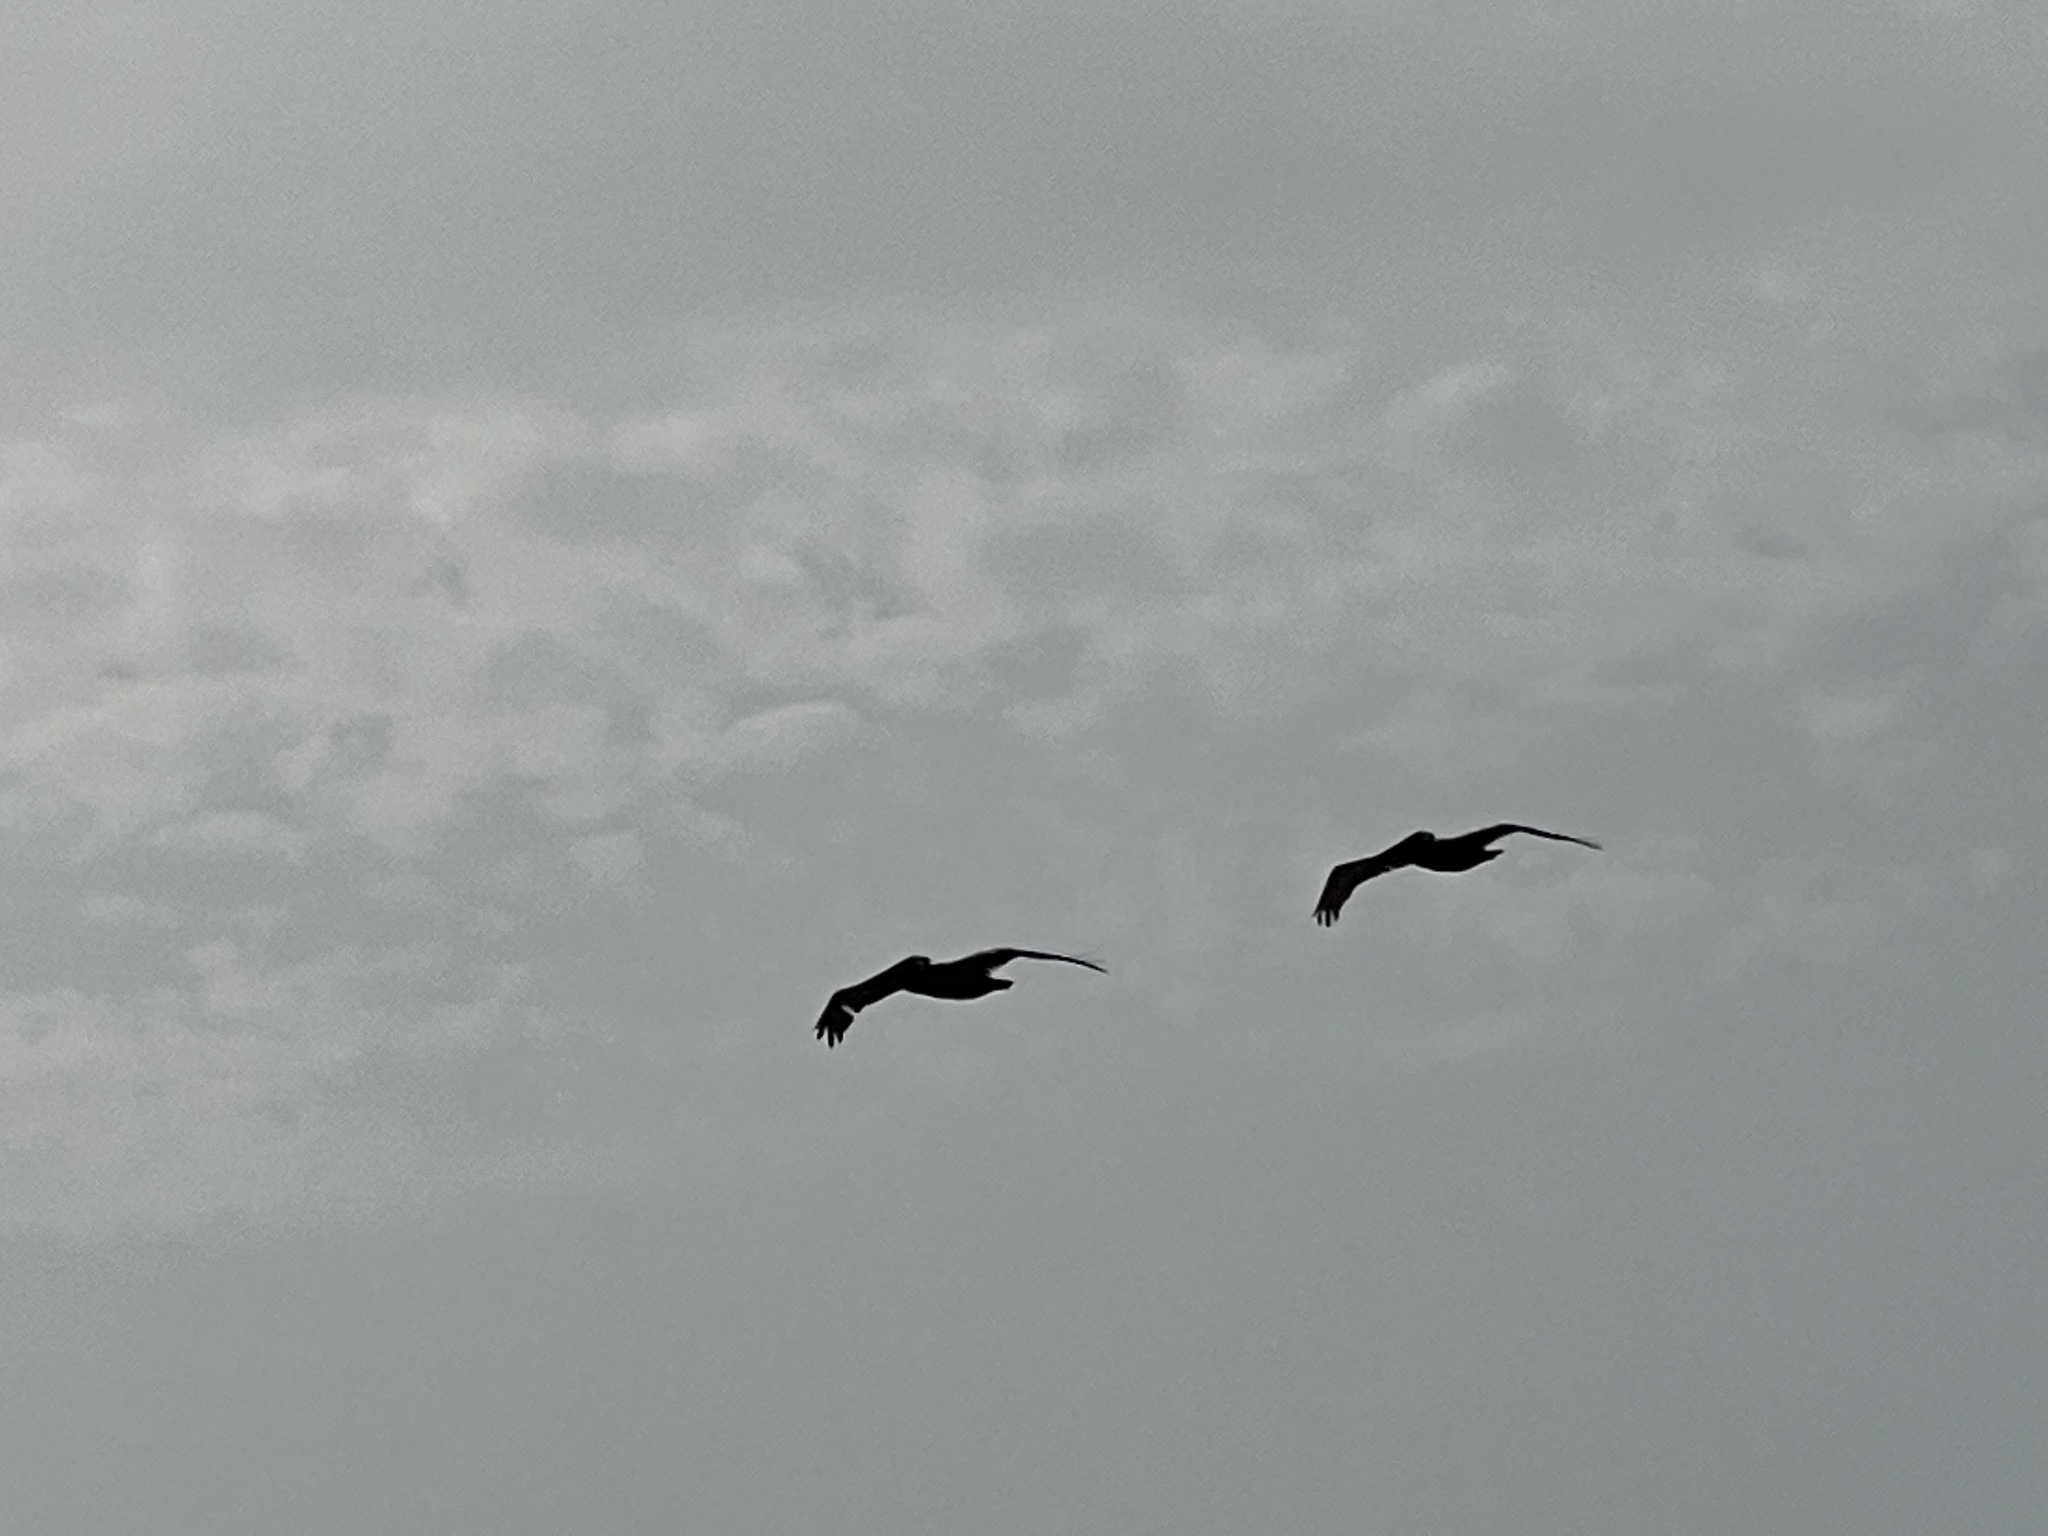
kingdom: Animalia
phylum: Chordata
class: Aves
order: Pelecaniformes
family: Pelecanidae
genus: Pelecanus
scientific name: Pelecanus occidentalis
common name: Brown pelican
